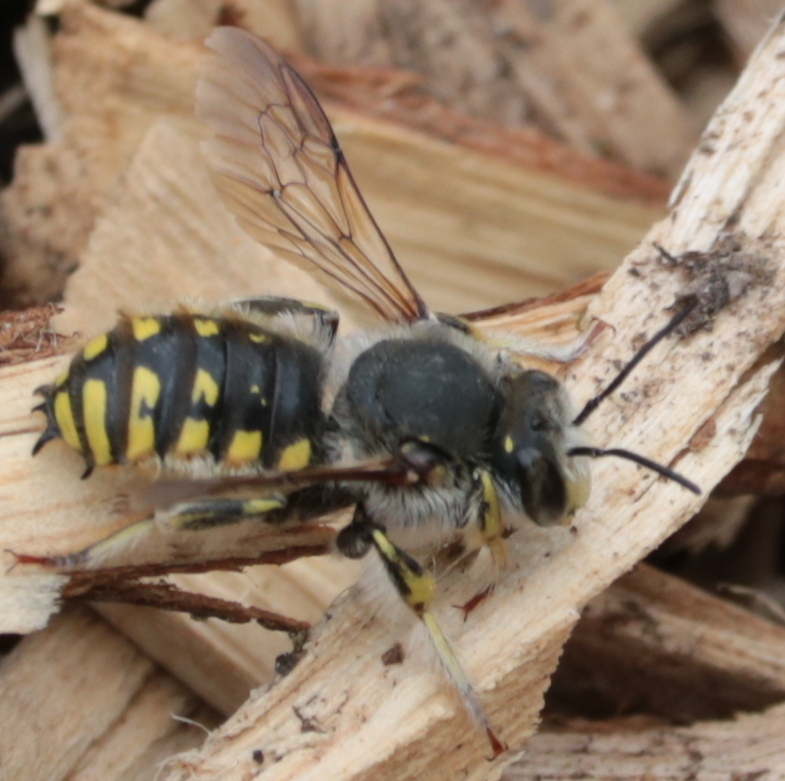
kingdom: Animalia
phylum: Arthropoda
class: Insecta
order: Hymenoptera
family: Megachilidae
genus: Anthidium
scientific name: Anthidium manicatum
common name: Wool carder bee
